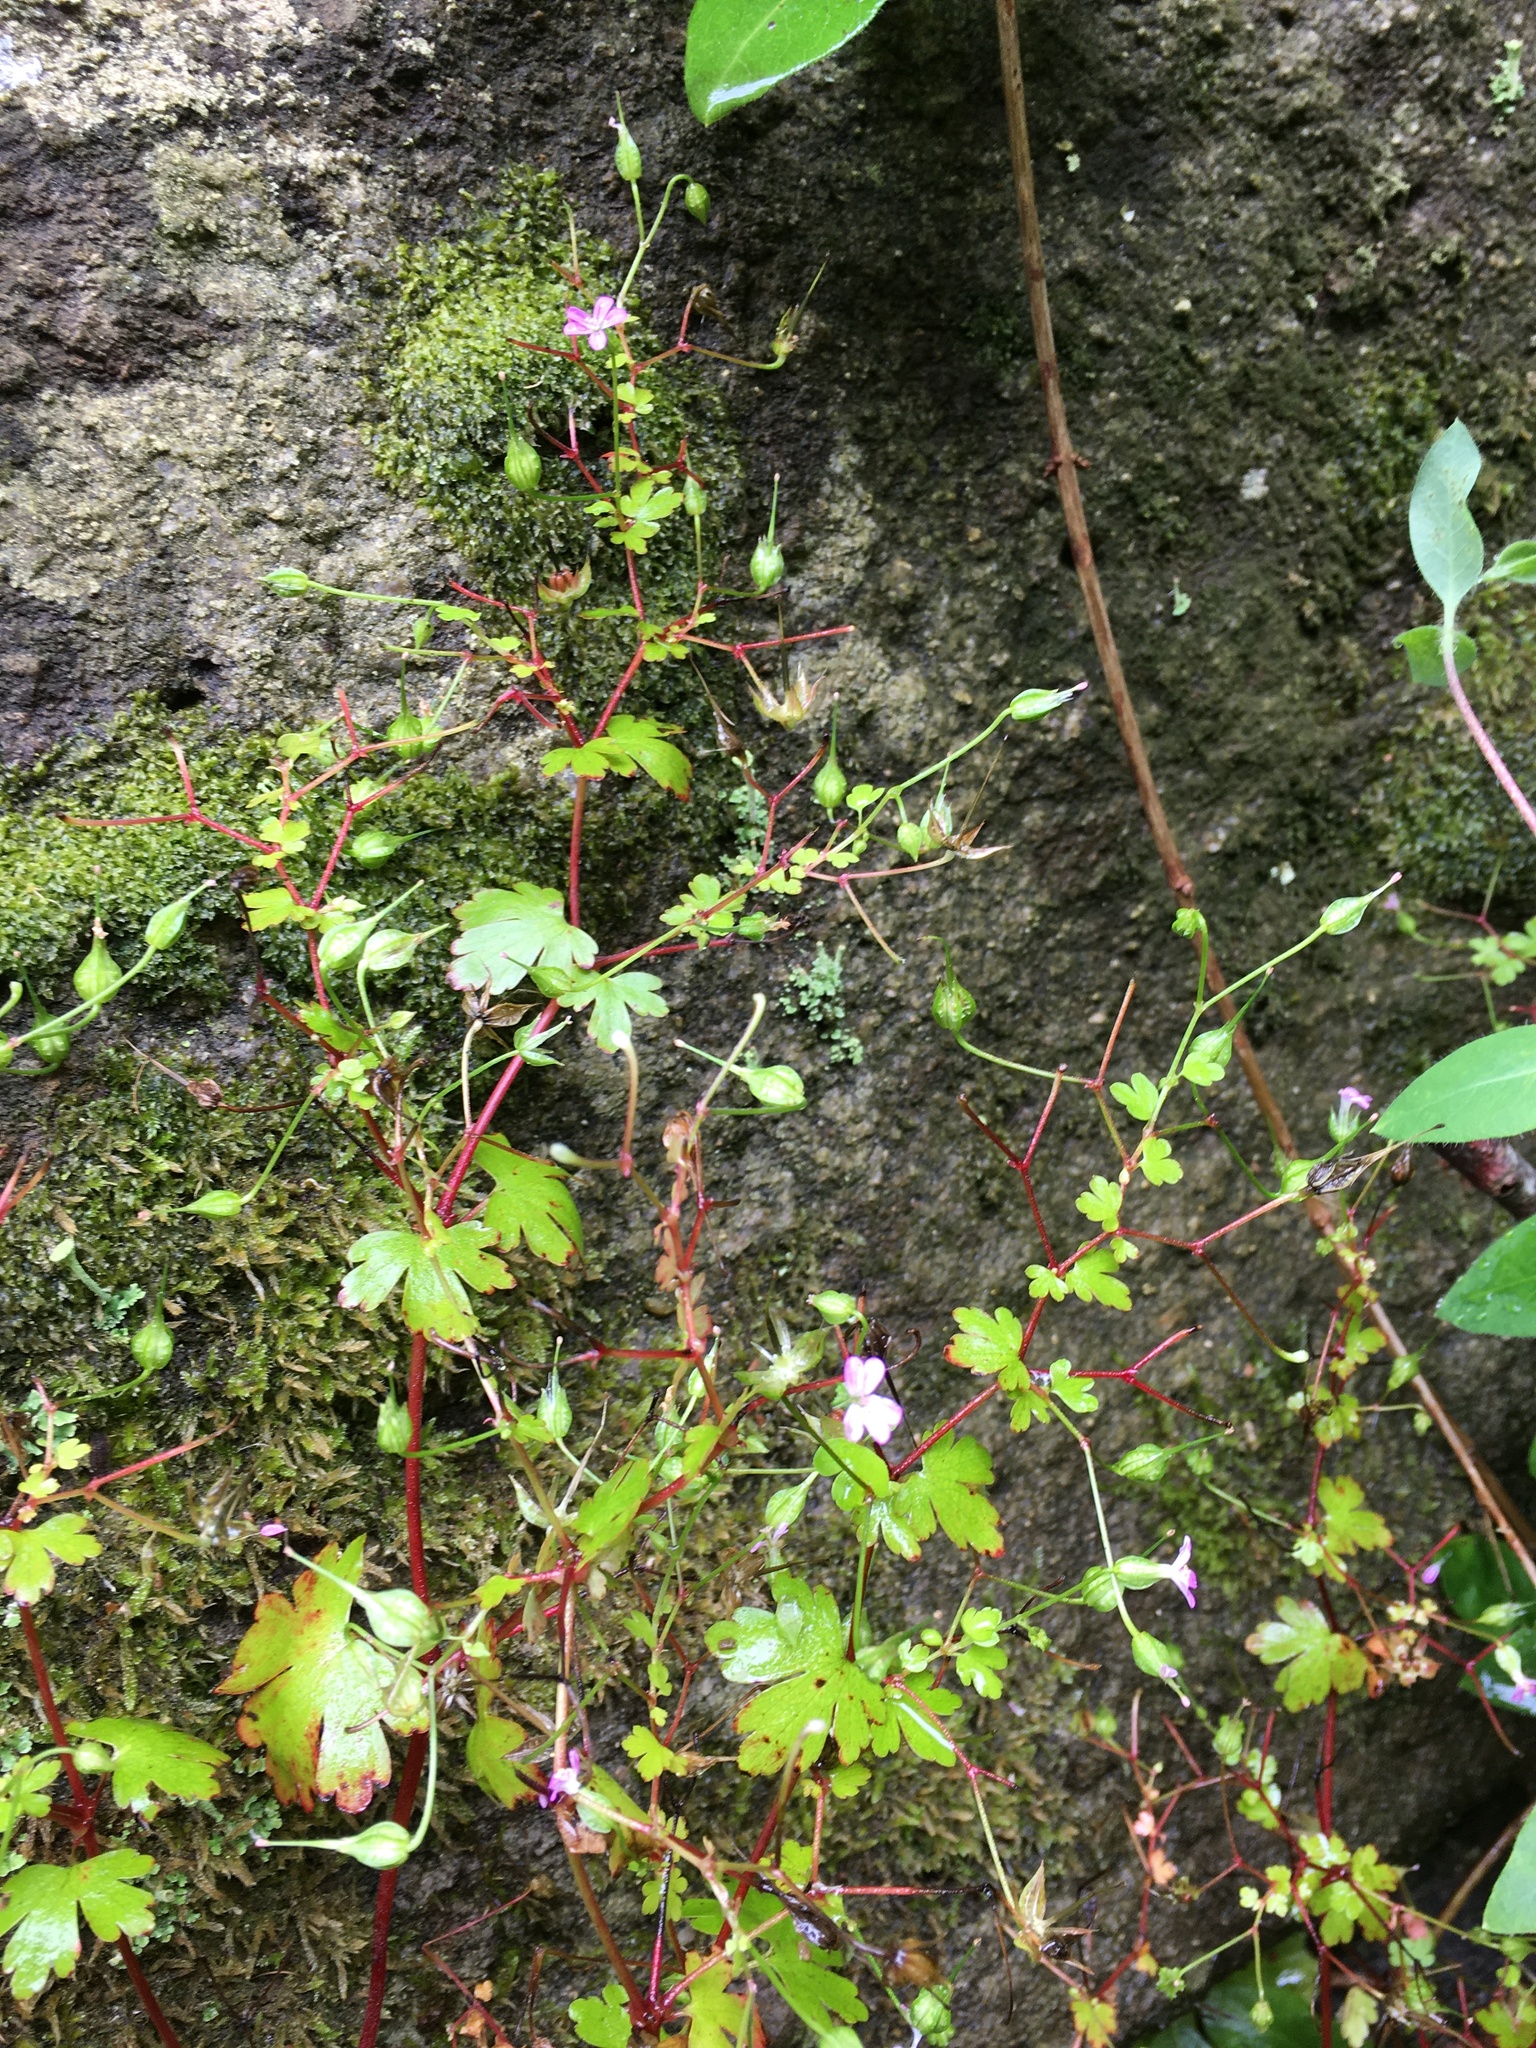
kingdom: Plantae
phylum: Tracheophyta
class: Magnoliopsida
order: Geraniales
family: Geraniaceae
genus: Geranium
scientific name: Geranium lucidum
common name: Shining crane's-bill
